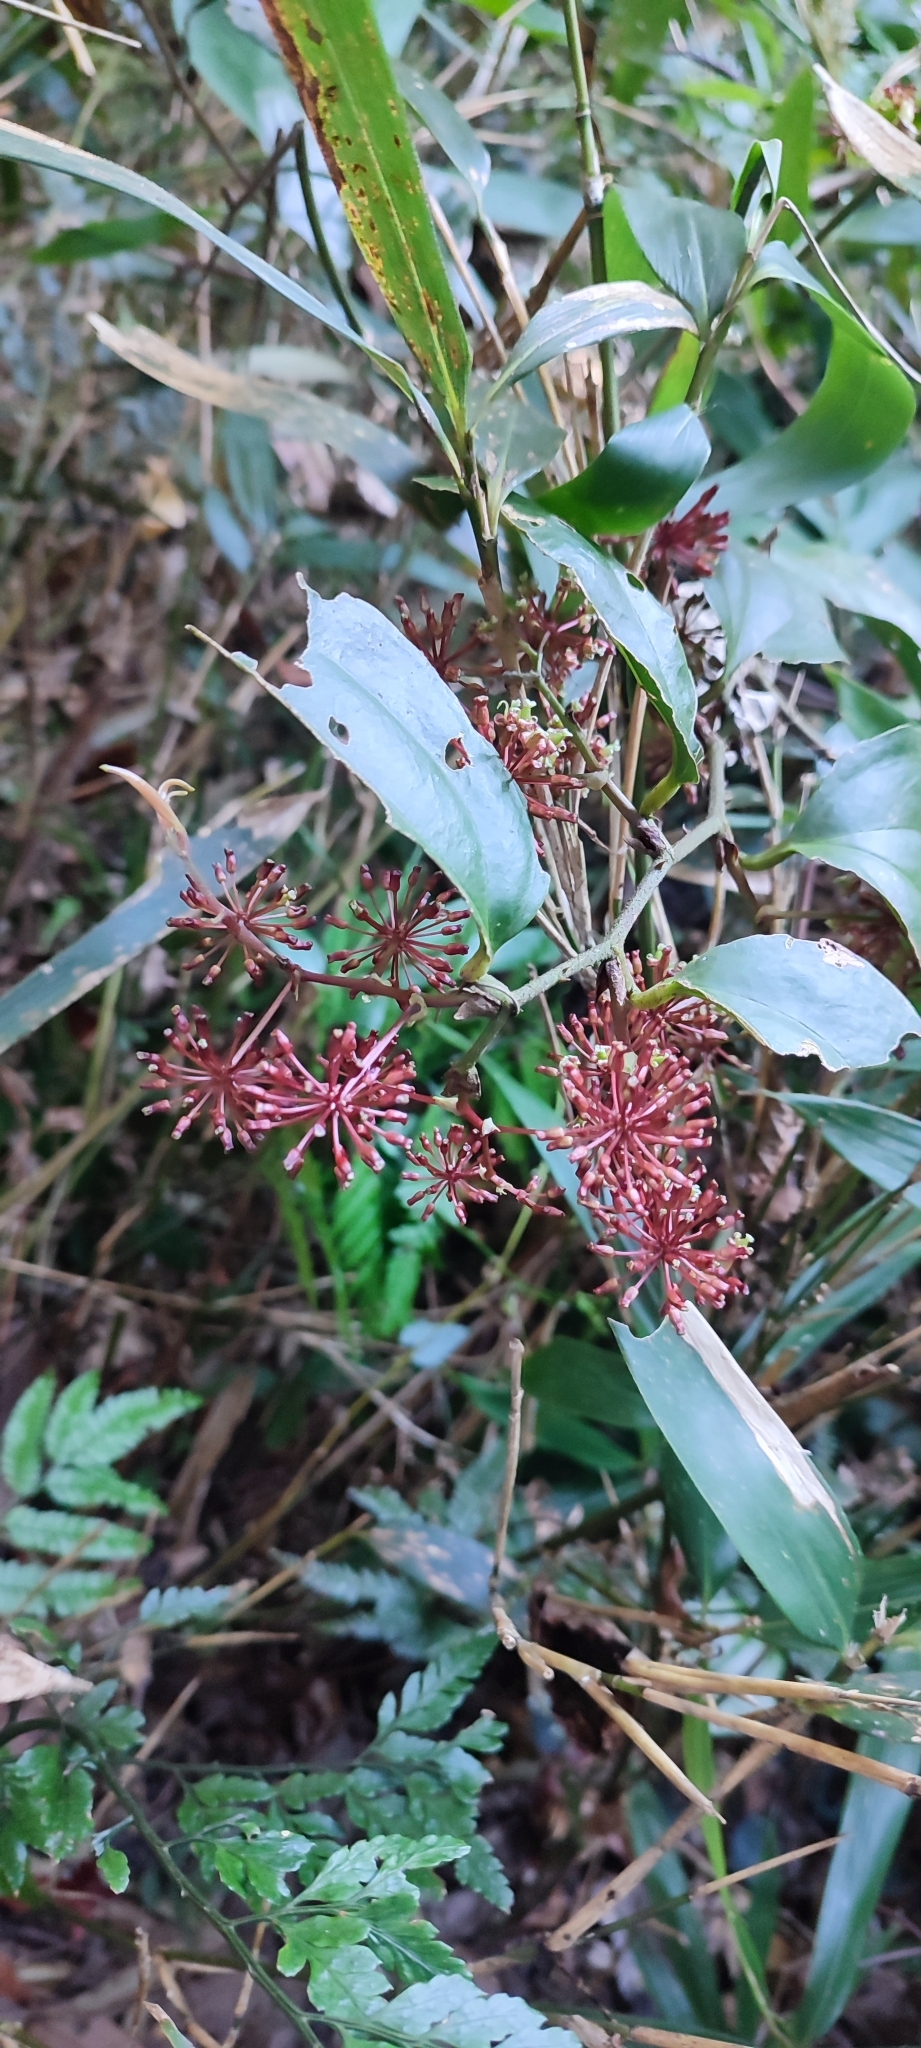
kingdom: Plantae
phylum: Tracheophyta
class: Liliopsida
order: Liliales
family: Smilacaceae
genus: Smilax
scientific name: Smilax bracteata
